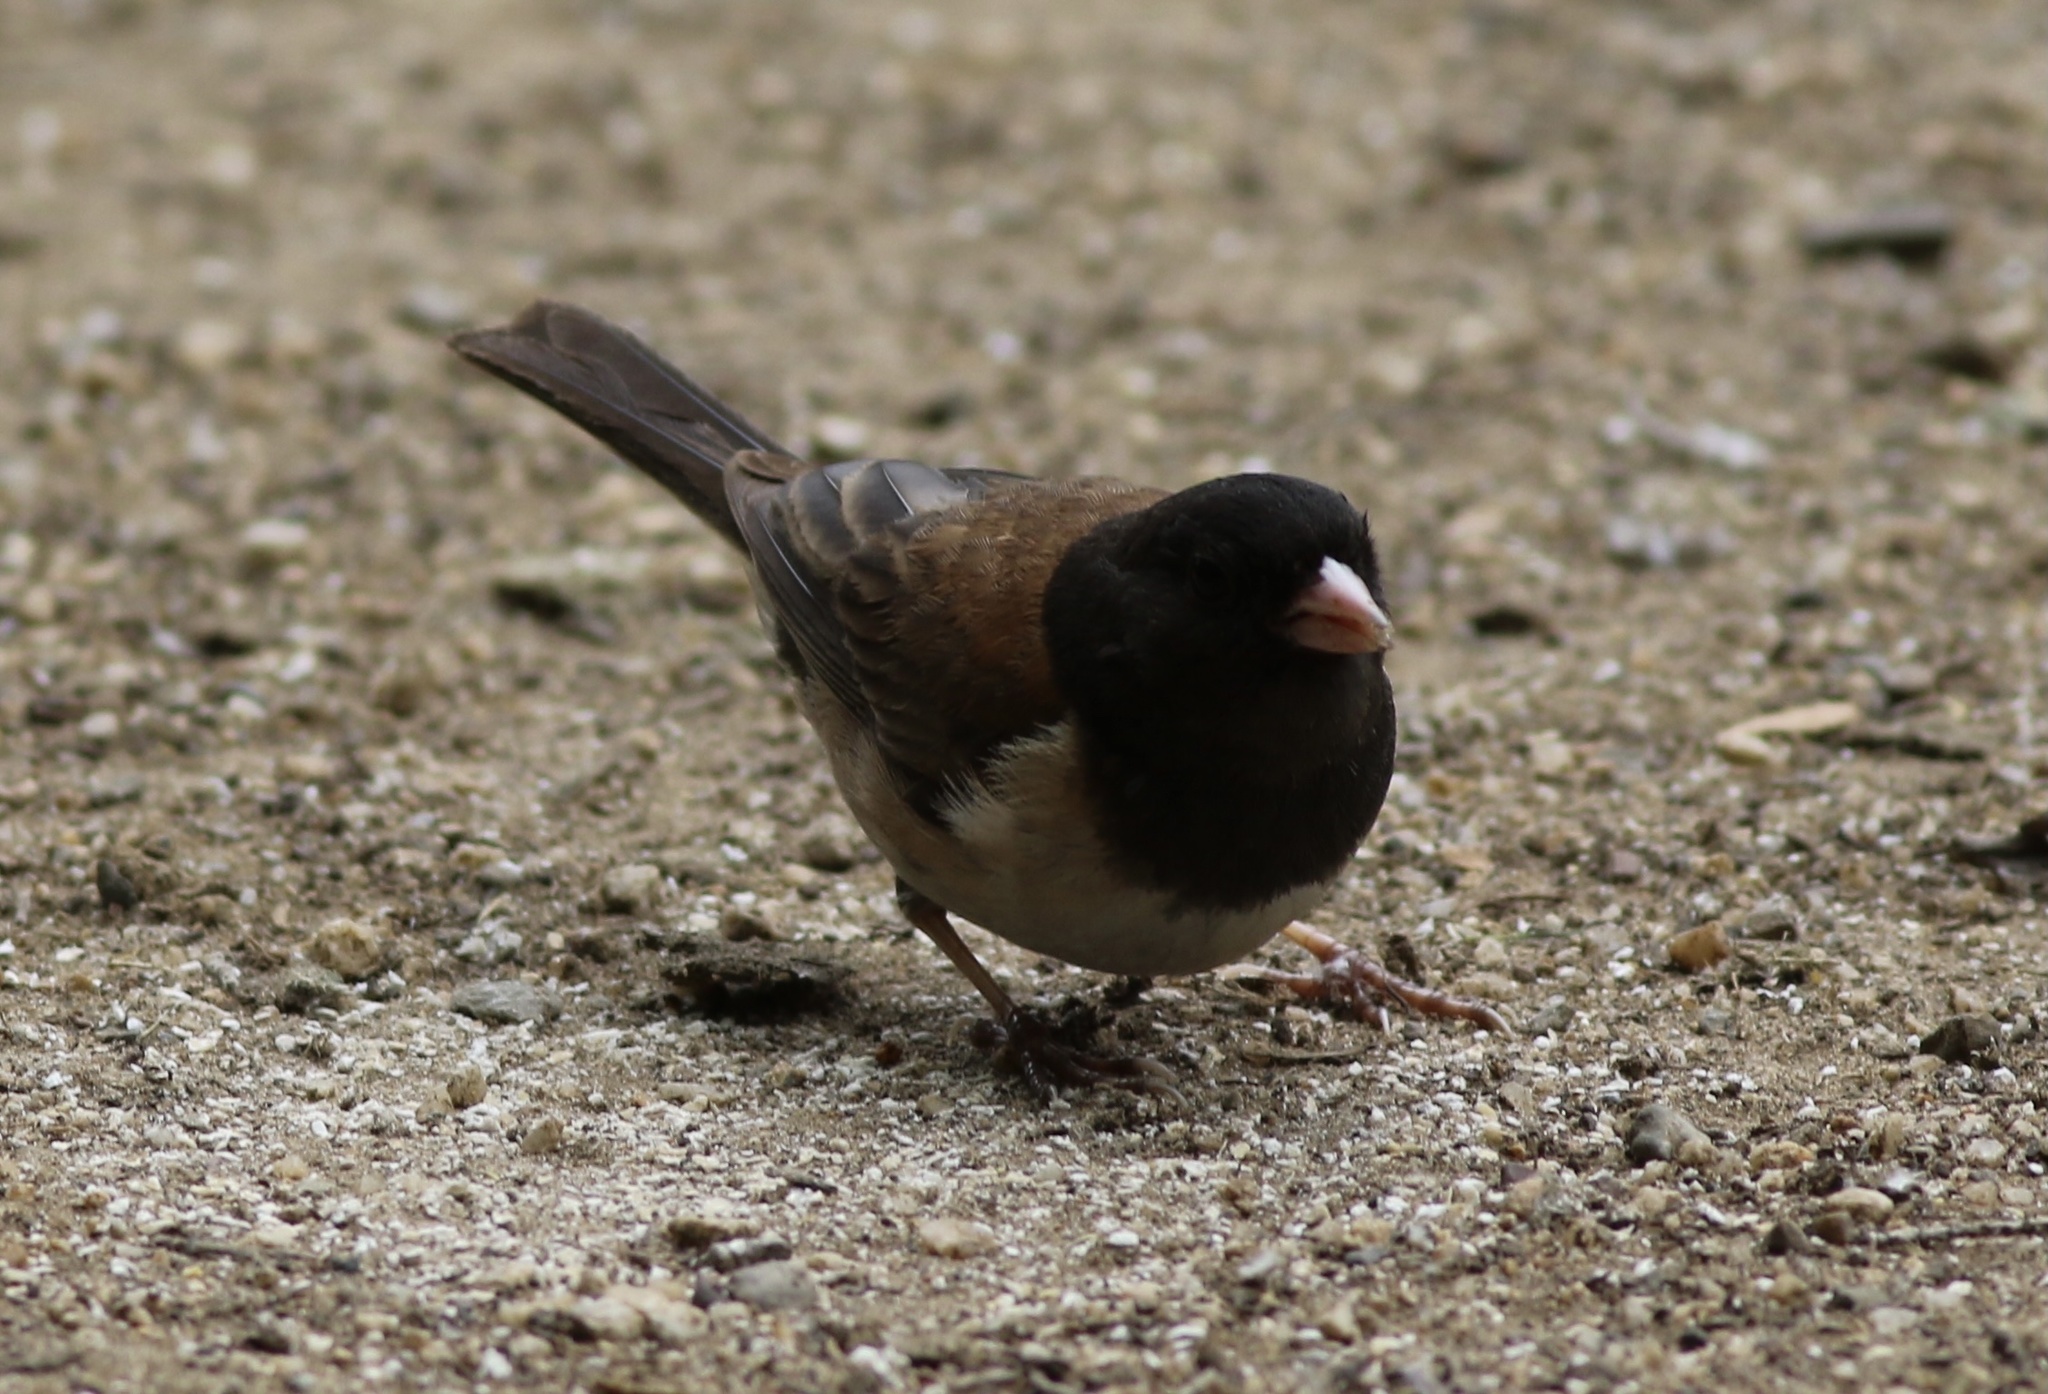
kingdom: Animalia
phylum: Chordata
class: Aves
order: Passeriformes
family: Passerellidae
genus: Junco
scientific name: Junco hyemalis
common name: Dark-eyed junco
